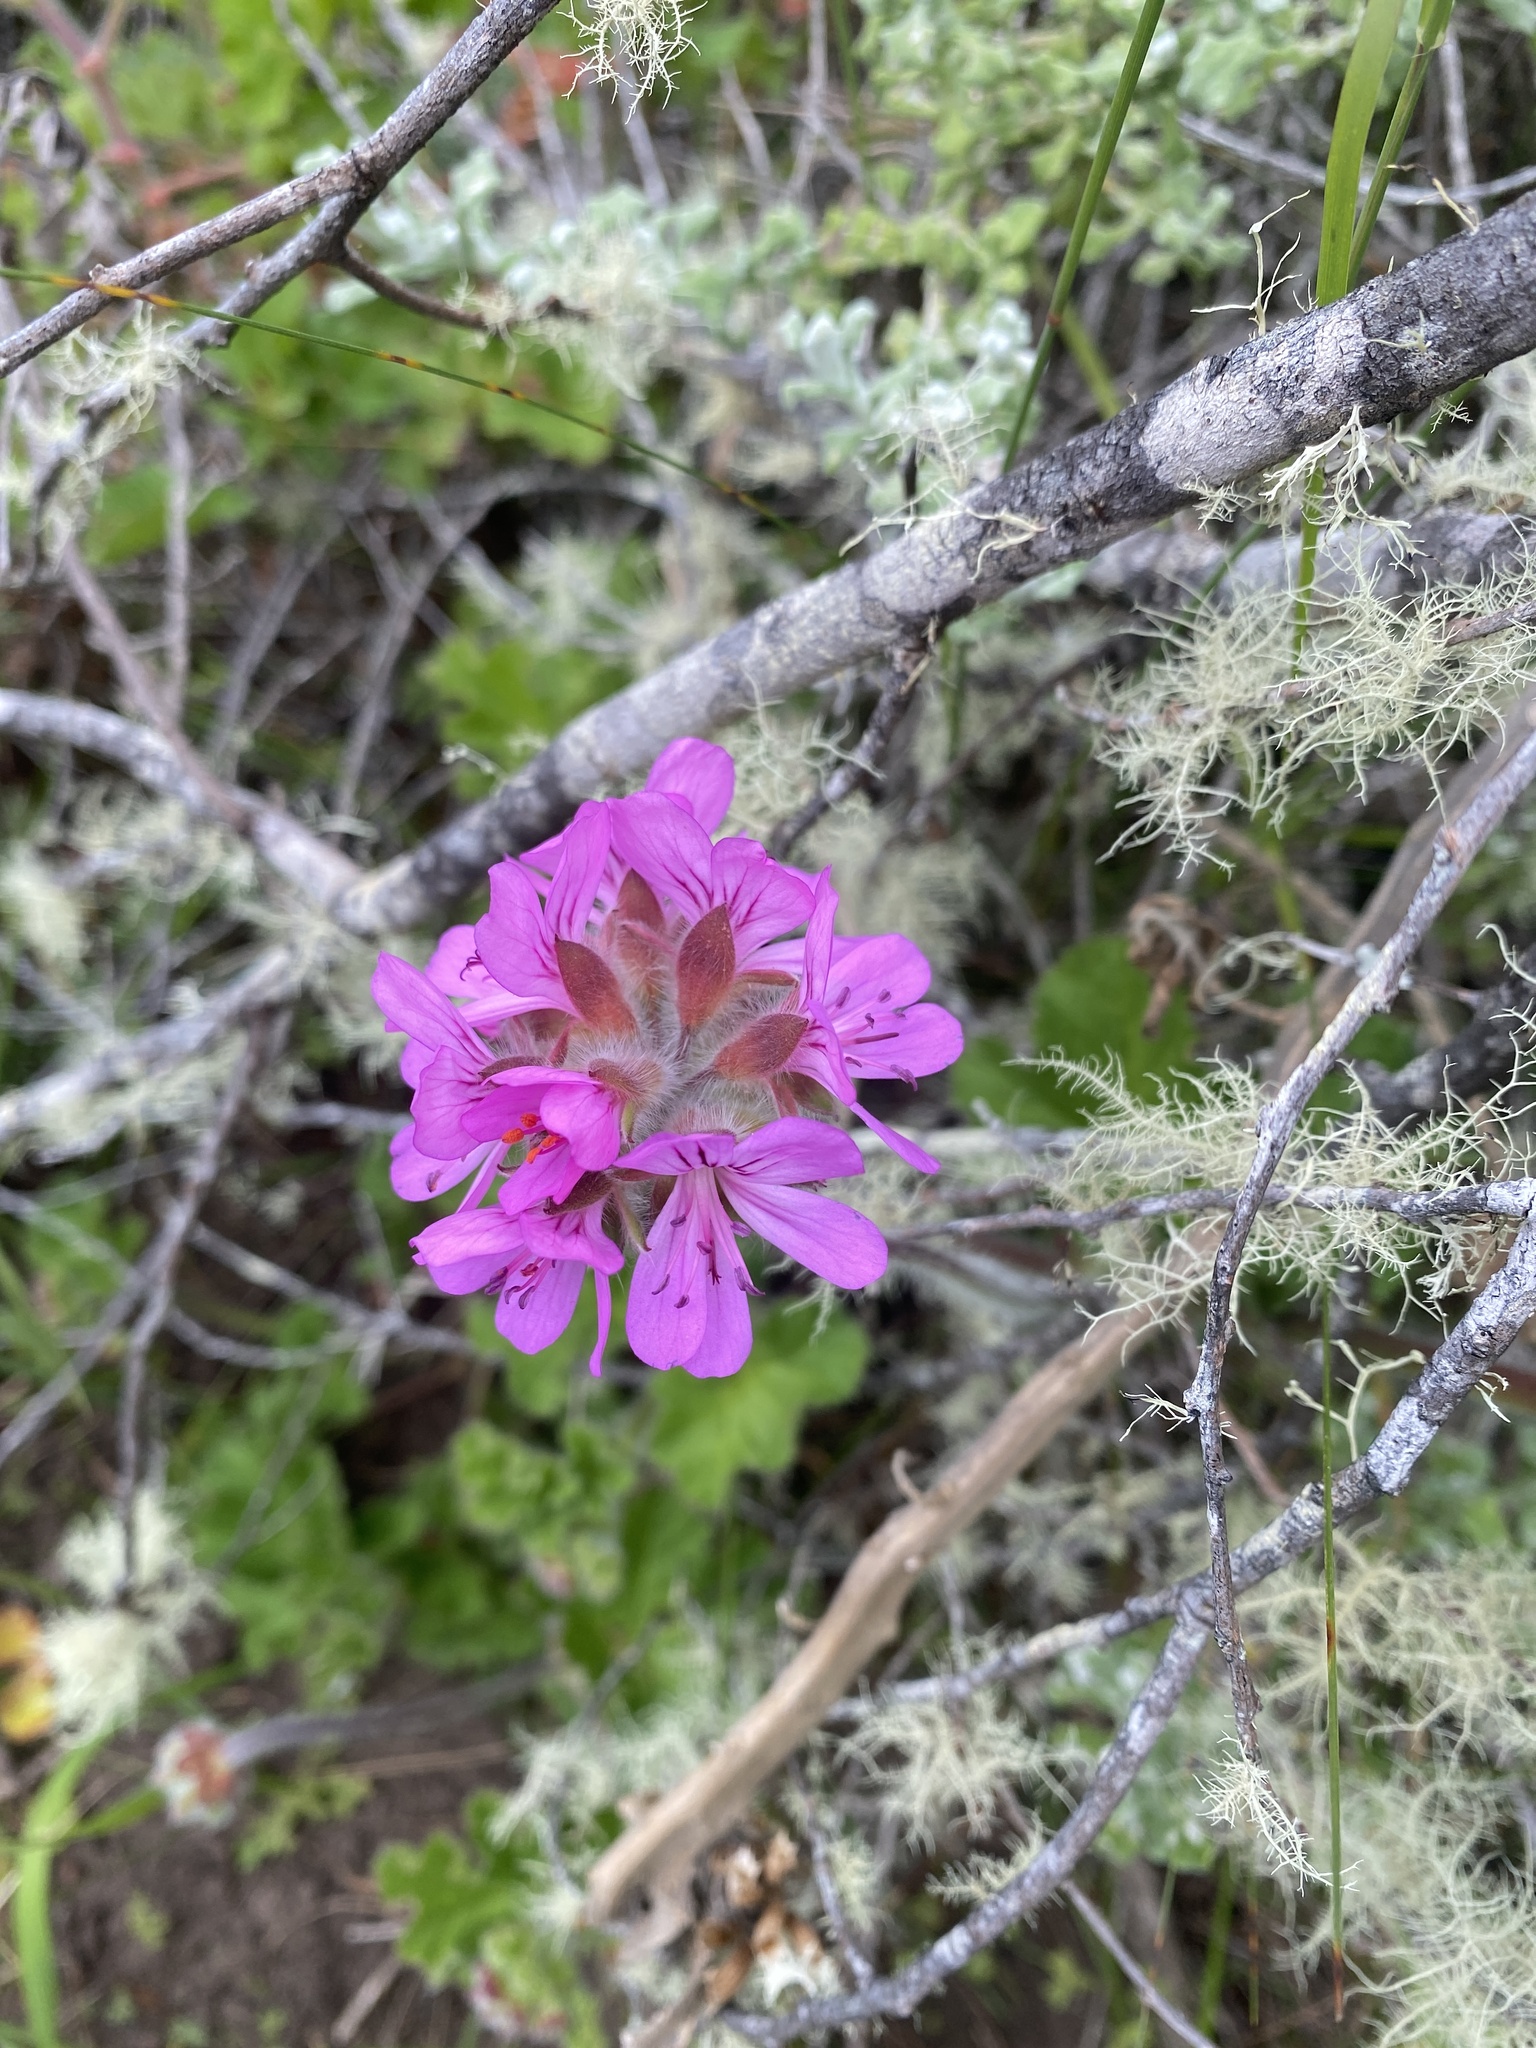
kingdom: Plantae
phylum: Tracheophyta
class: Magnoliopsida
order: Geraniales
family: Geraniaceae
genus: Pelargonium
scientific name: Pelargonium capitatum
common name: Rose scented geranium
